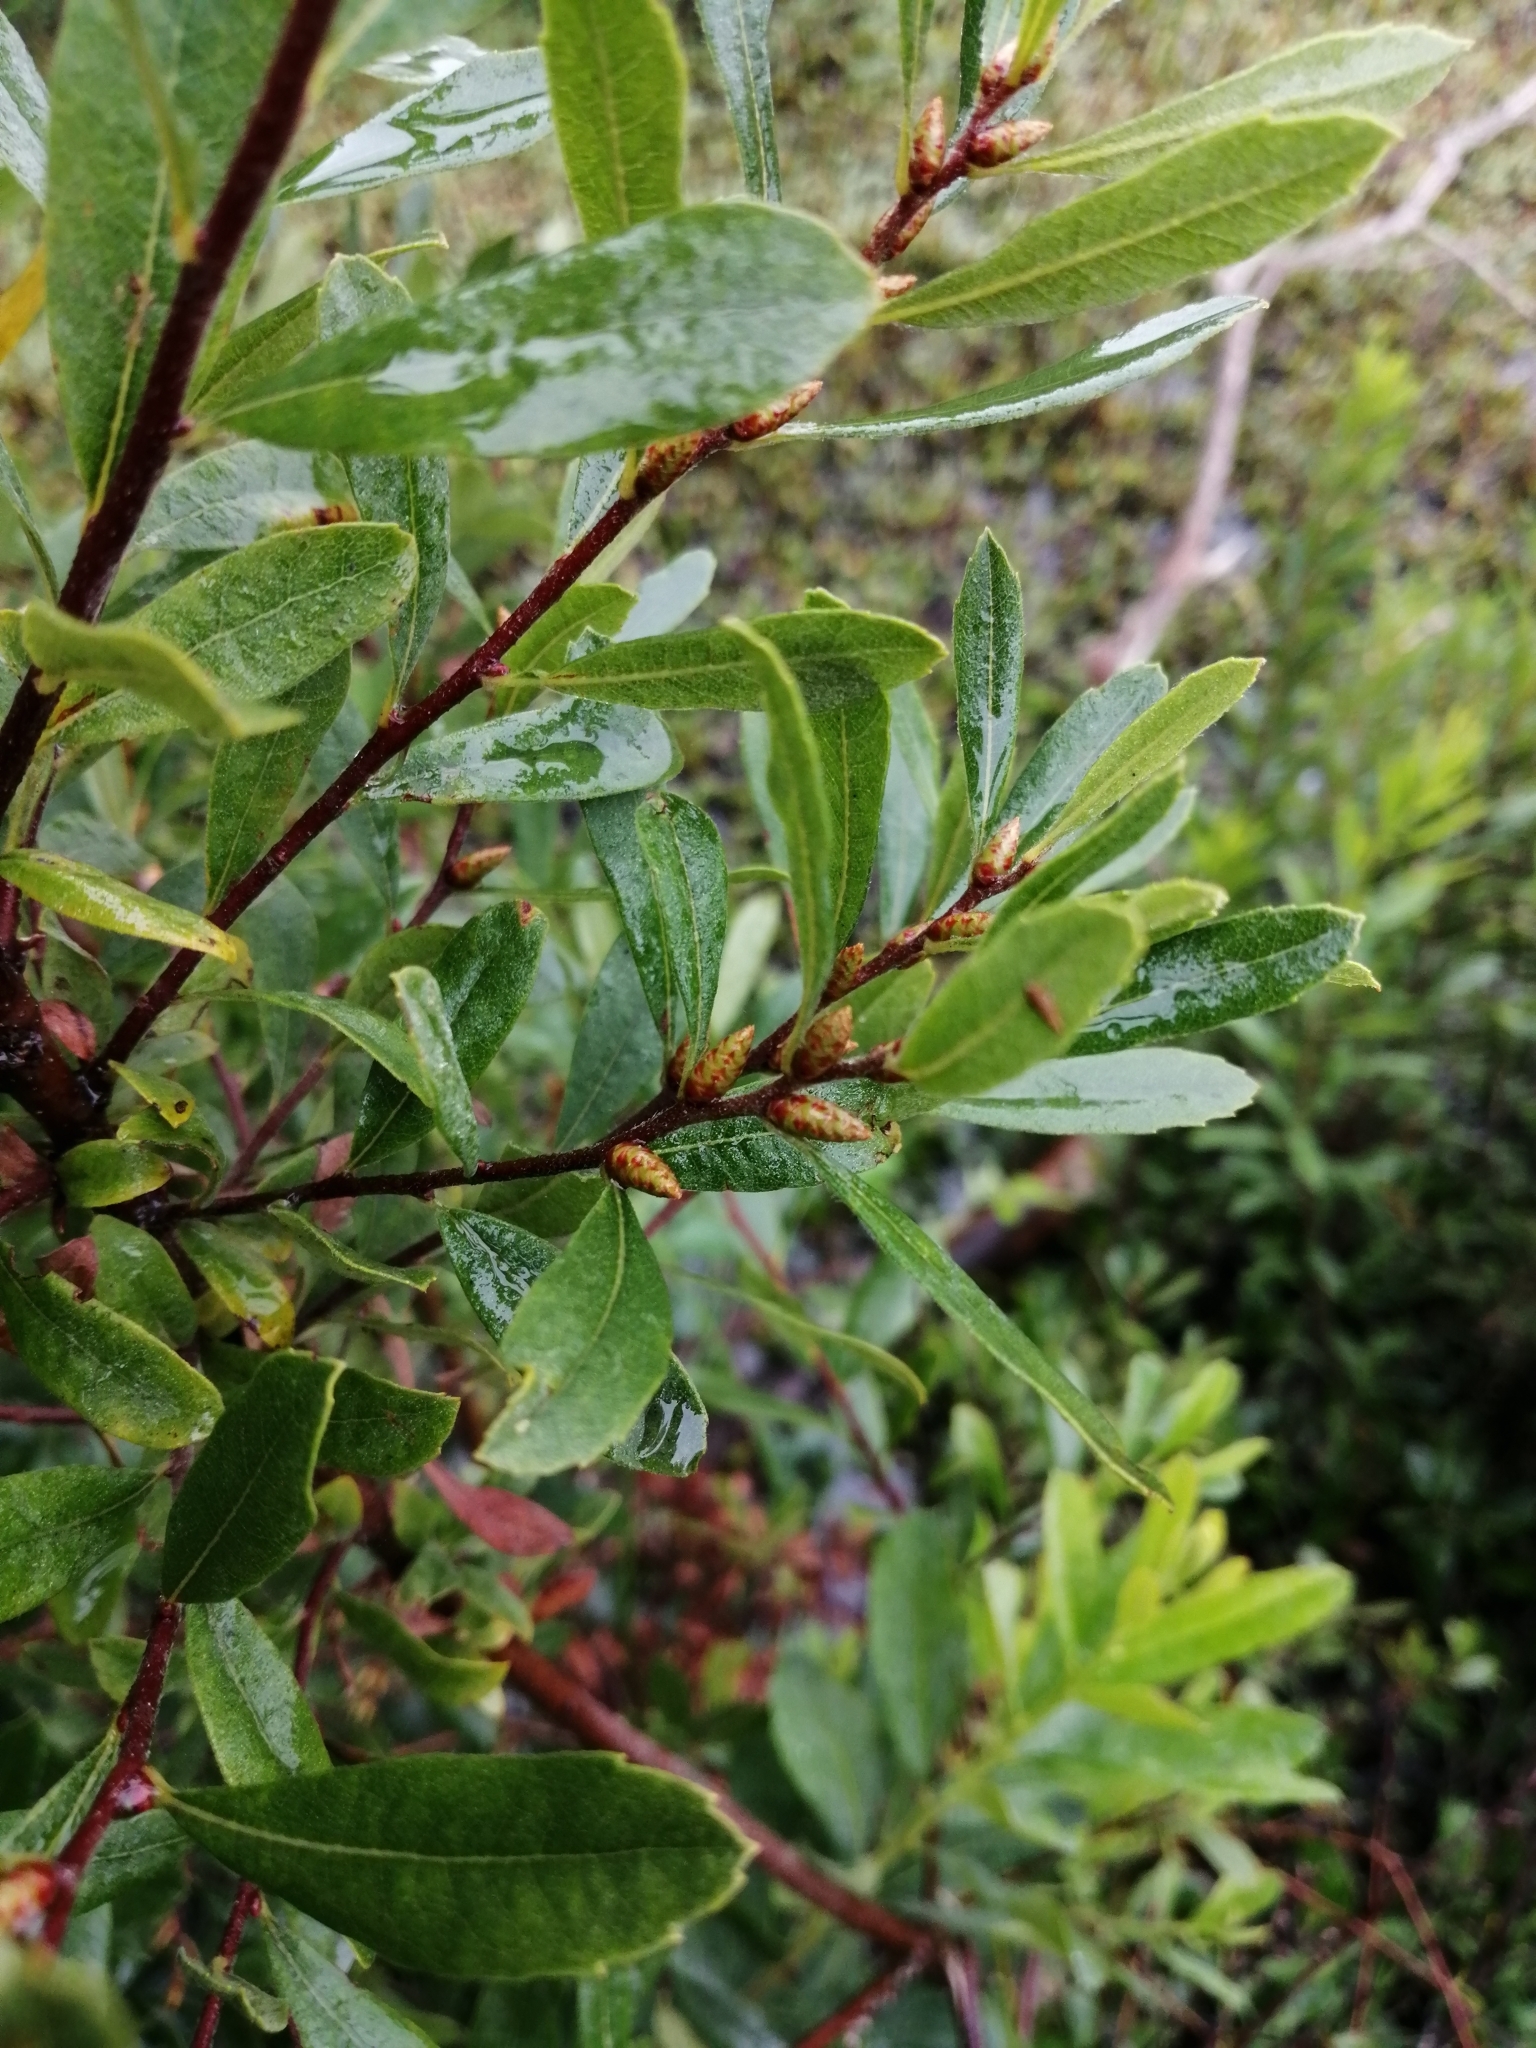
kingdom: Plantae
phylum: Tracheophyta
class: Magnoliopsida
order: Fagales
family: Myricaceae
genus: Myrica
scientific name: Myrica gale
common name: Sweet gale
